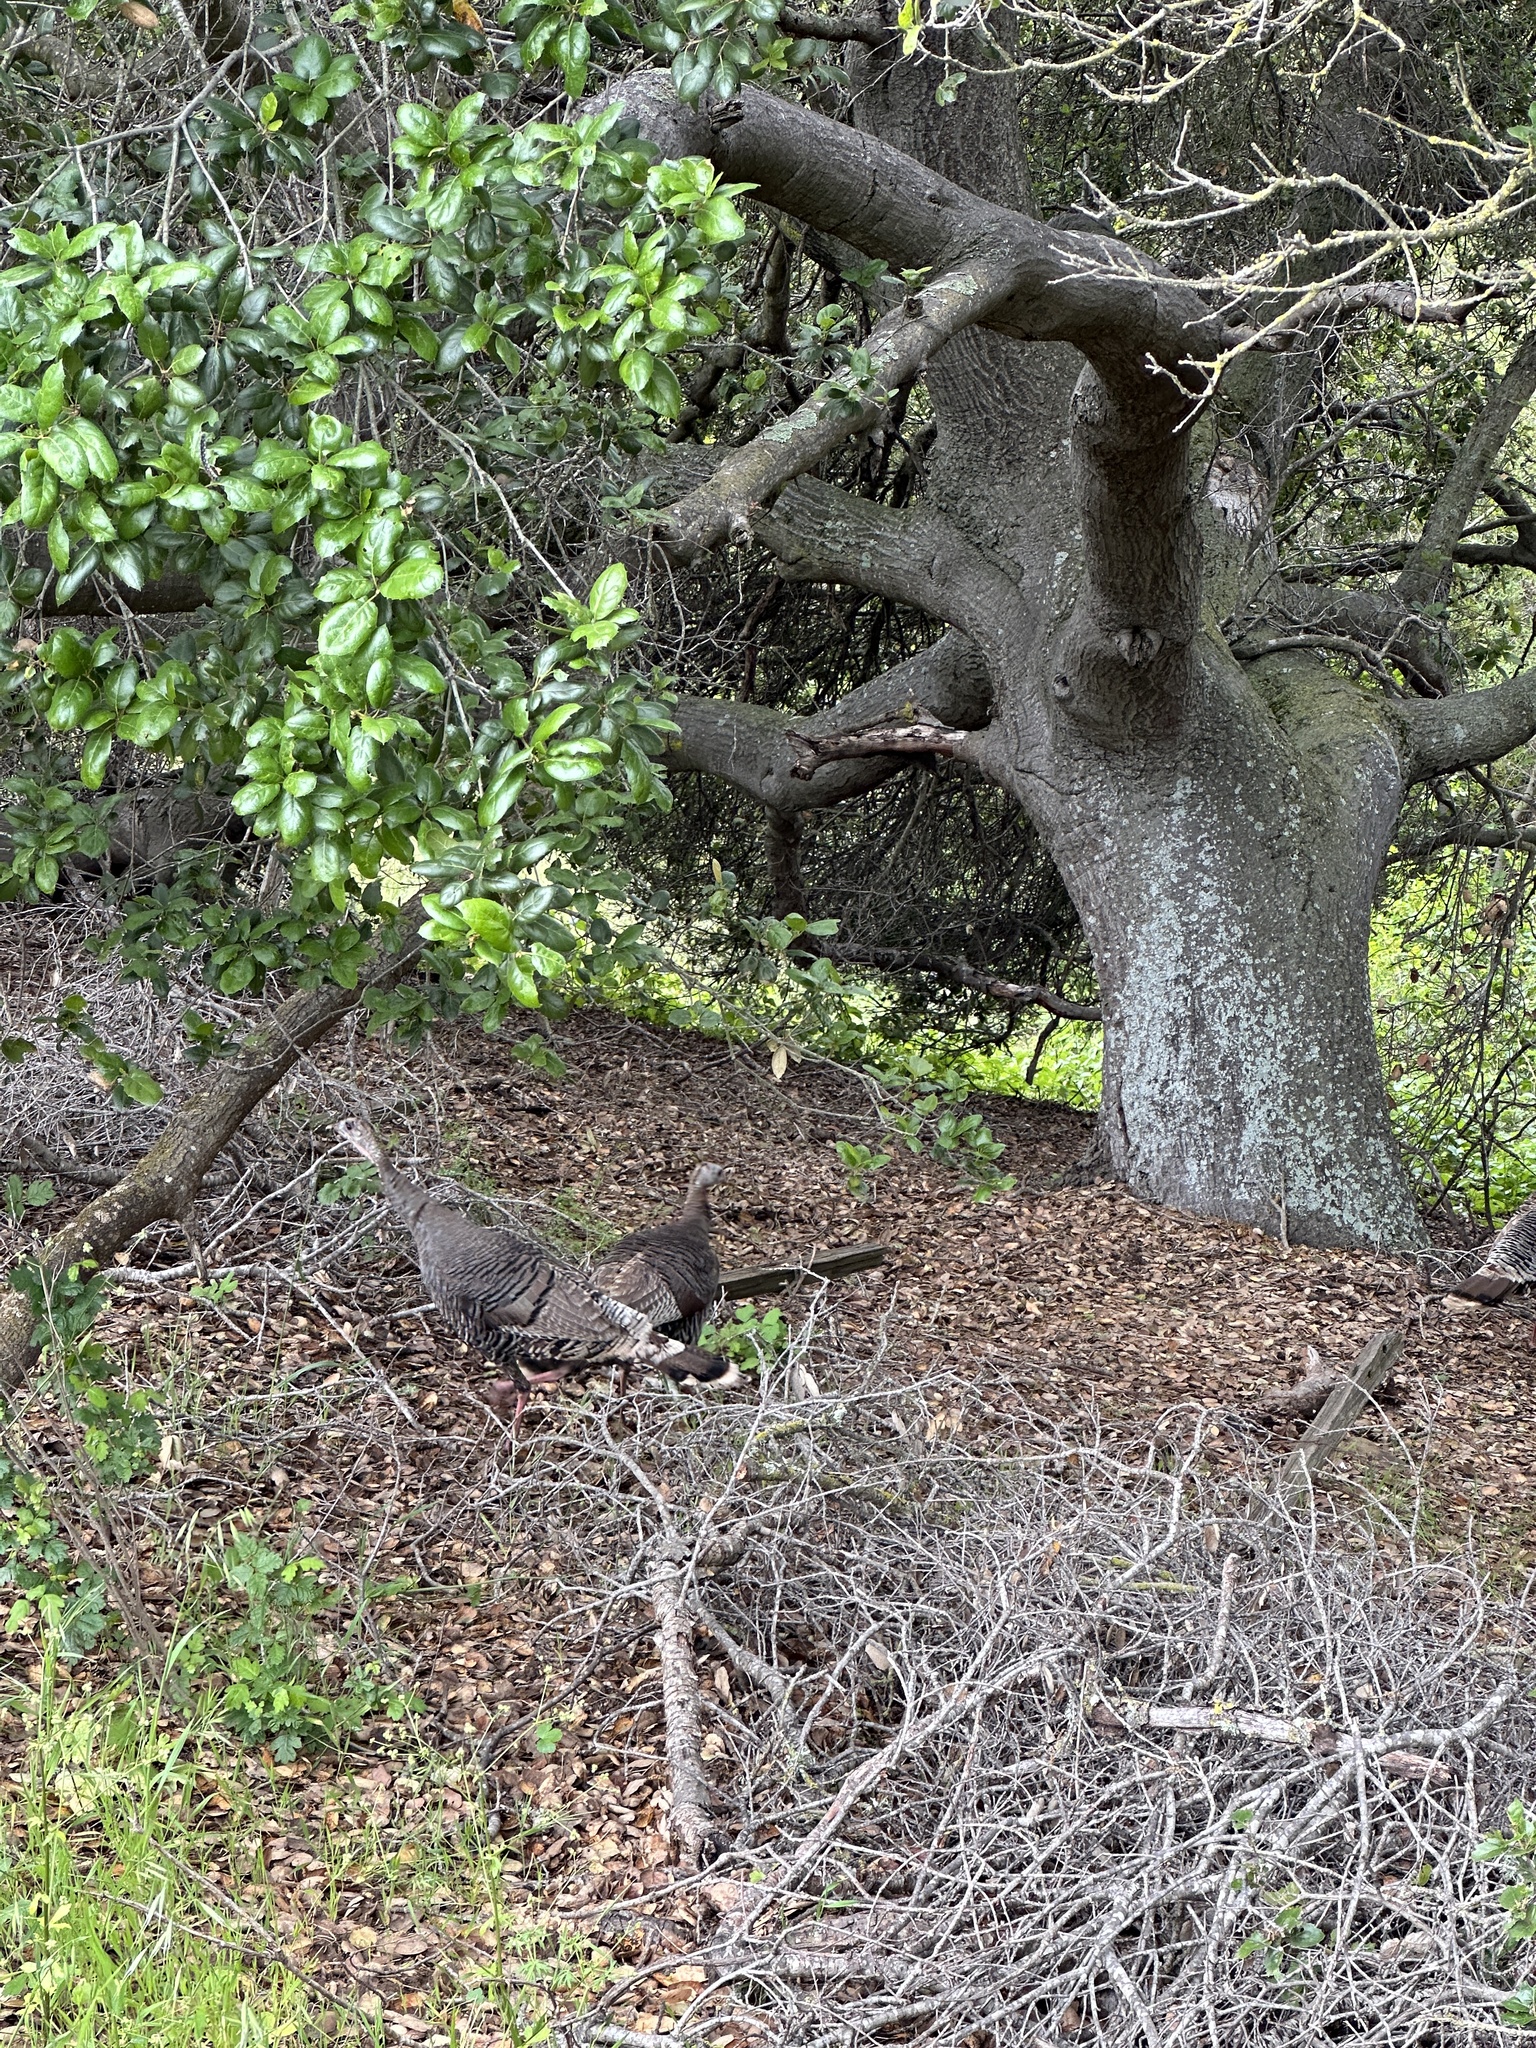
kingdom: Animalia
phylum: Chordata
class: Aves
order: Galliformes
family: Phasianidae
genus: Meleagris
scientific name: Meleagris gallopavo
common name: Wild turkey
